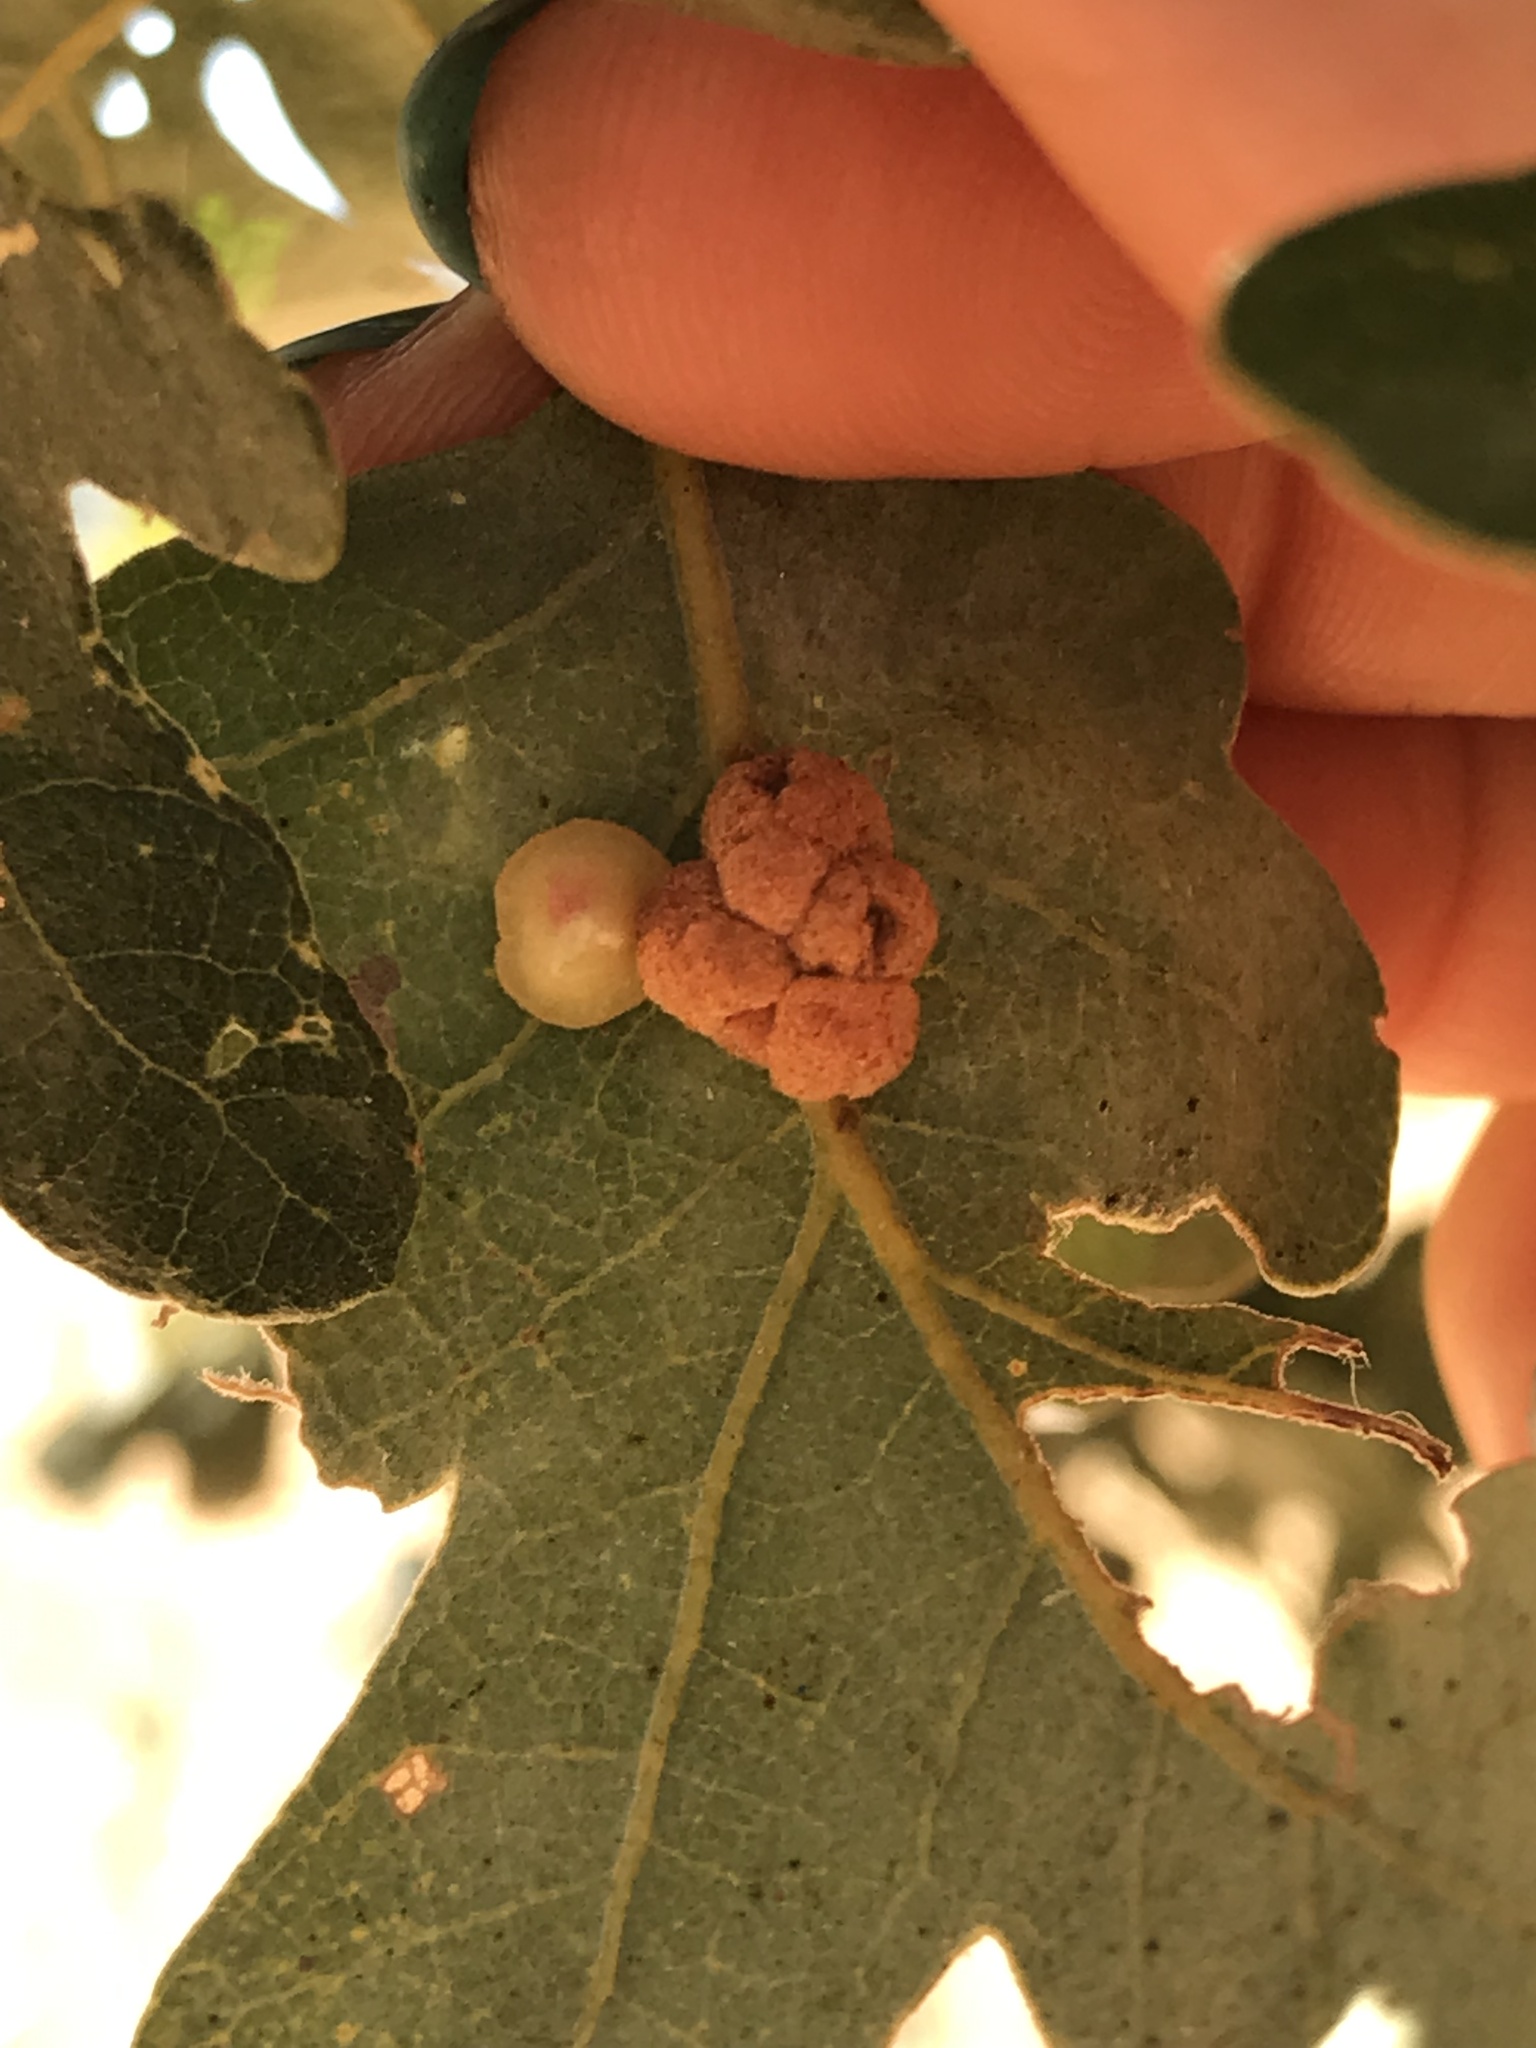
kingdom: Animalia
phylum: Arthropoda
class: Insecta
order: Hymenoptera
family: Cynipidae
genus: Andricus
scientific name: Andricus
